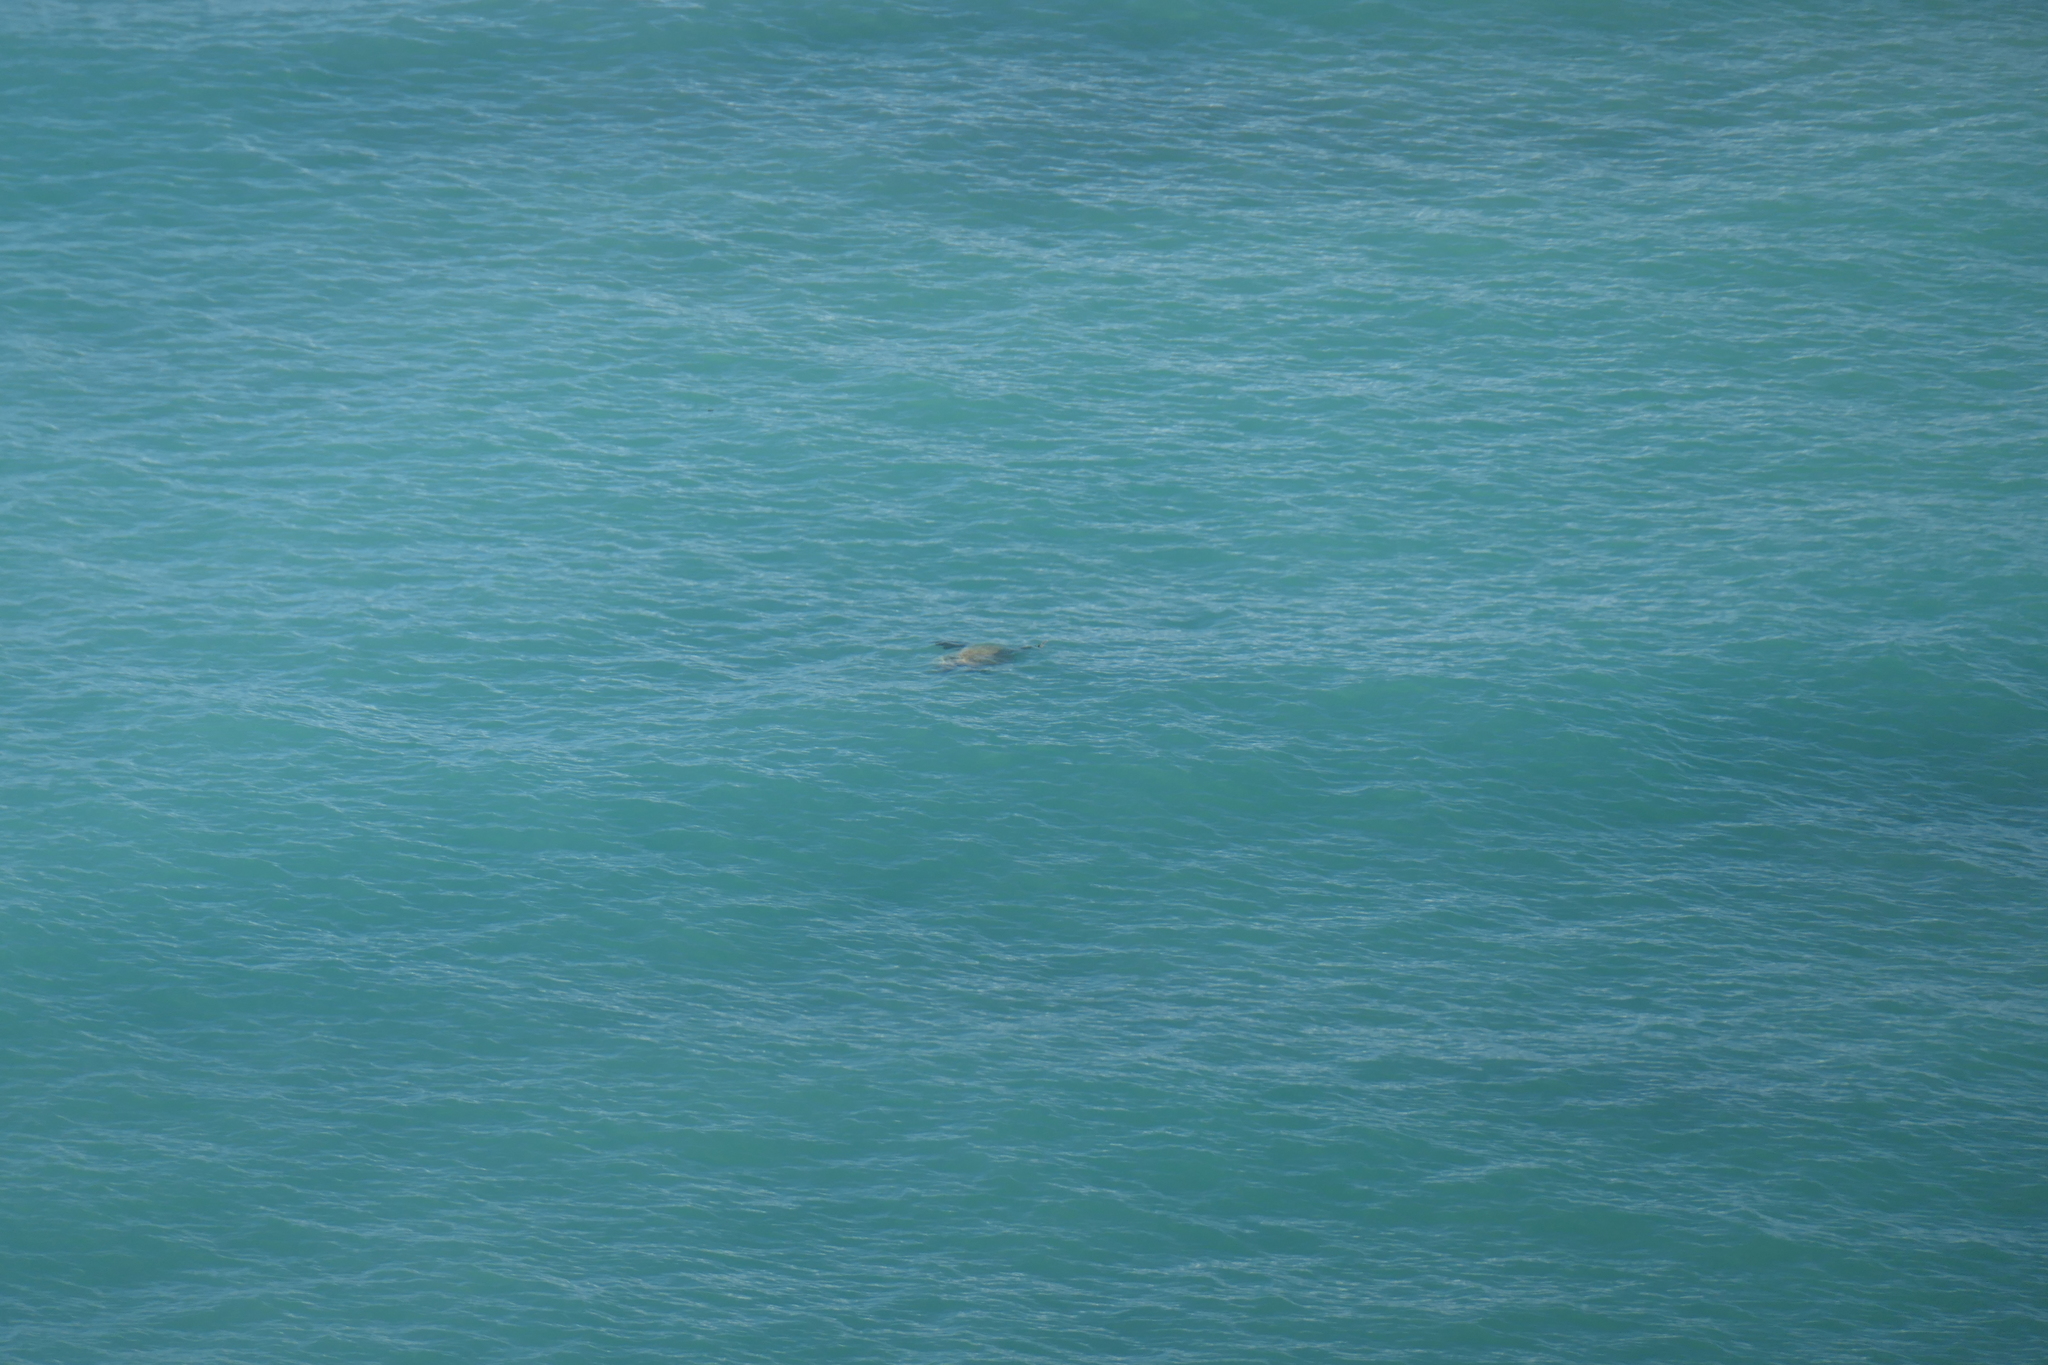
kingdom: Animalia
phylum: Chordata
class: Testudines
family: Cheloniidae
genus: Chelonia
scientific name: Chelonia mydas
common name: Green turtle
